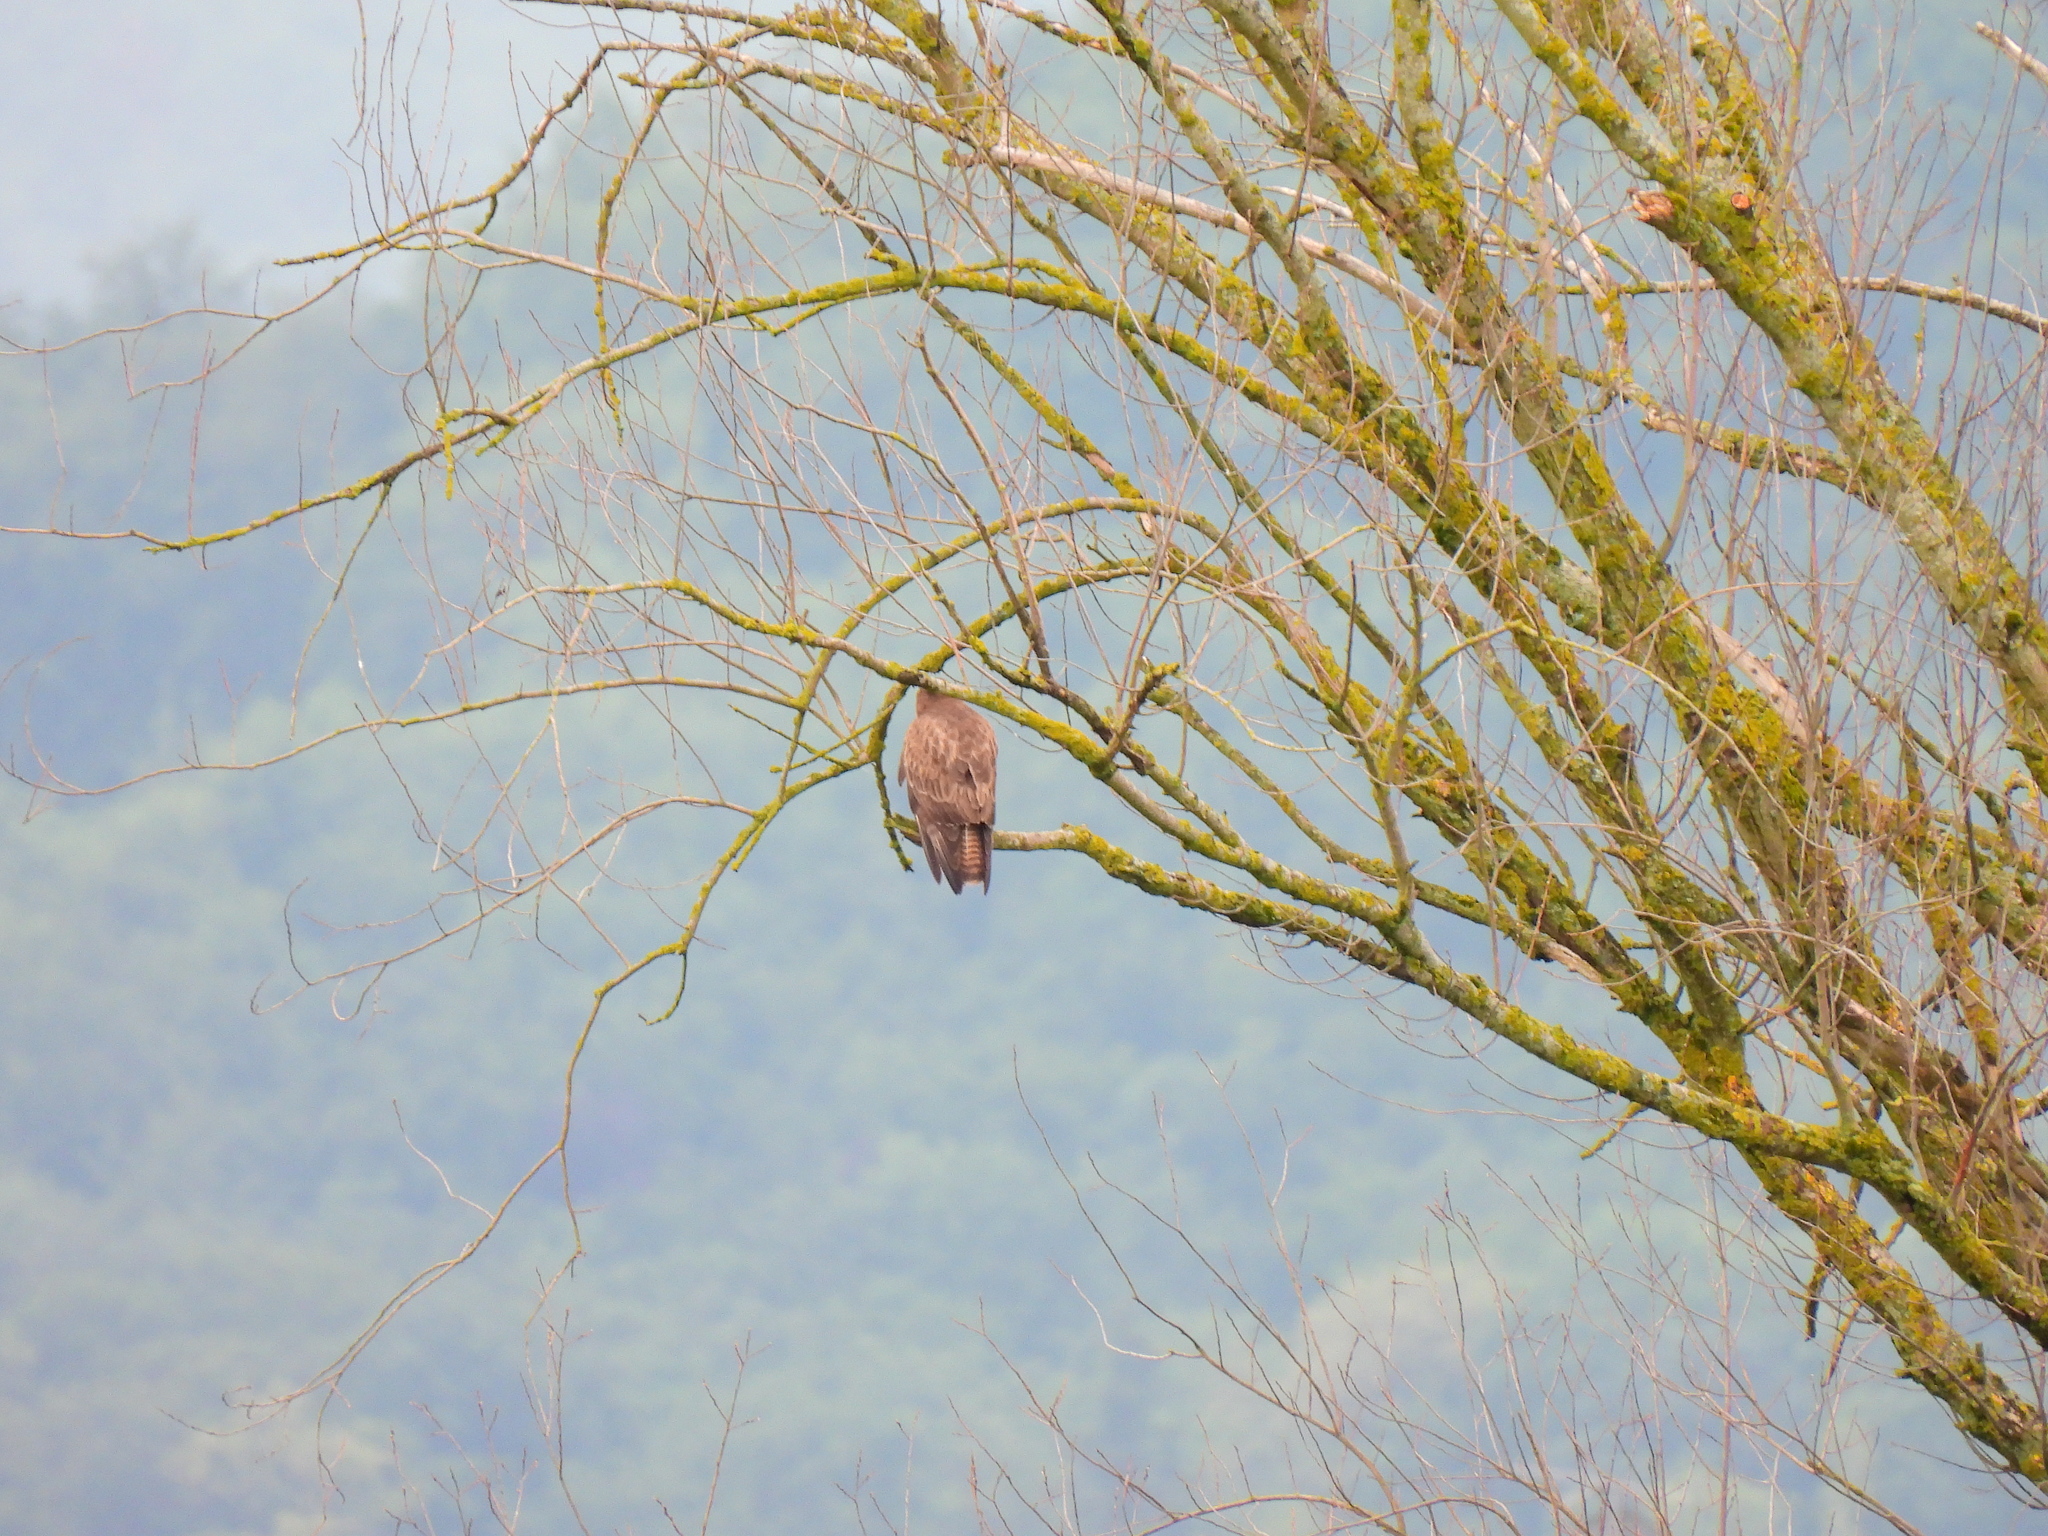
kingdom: Animalia
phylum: Chordata
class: Aves
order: Accipitriformes
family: Accipitridae
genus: Buteo
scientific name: Buteo buteo
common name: Common buzzard
